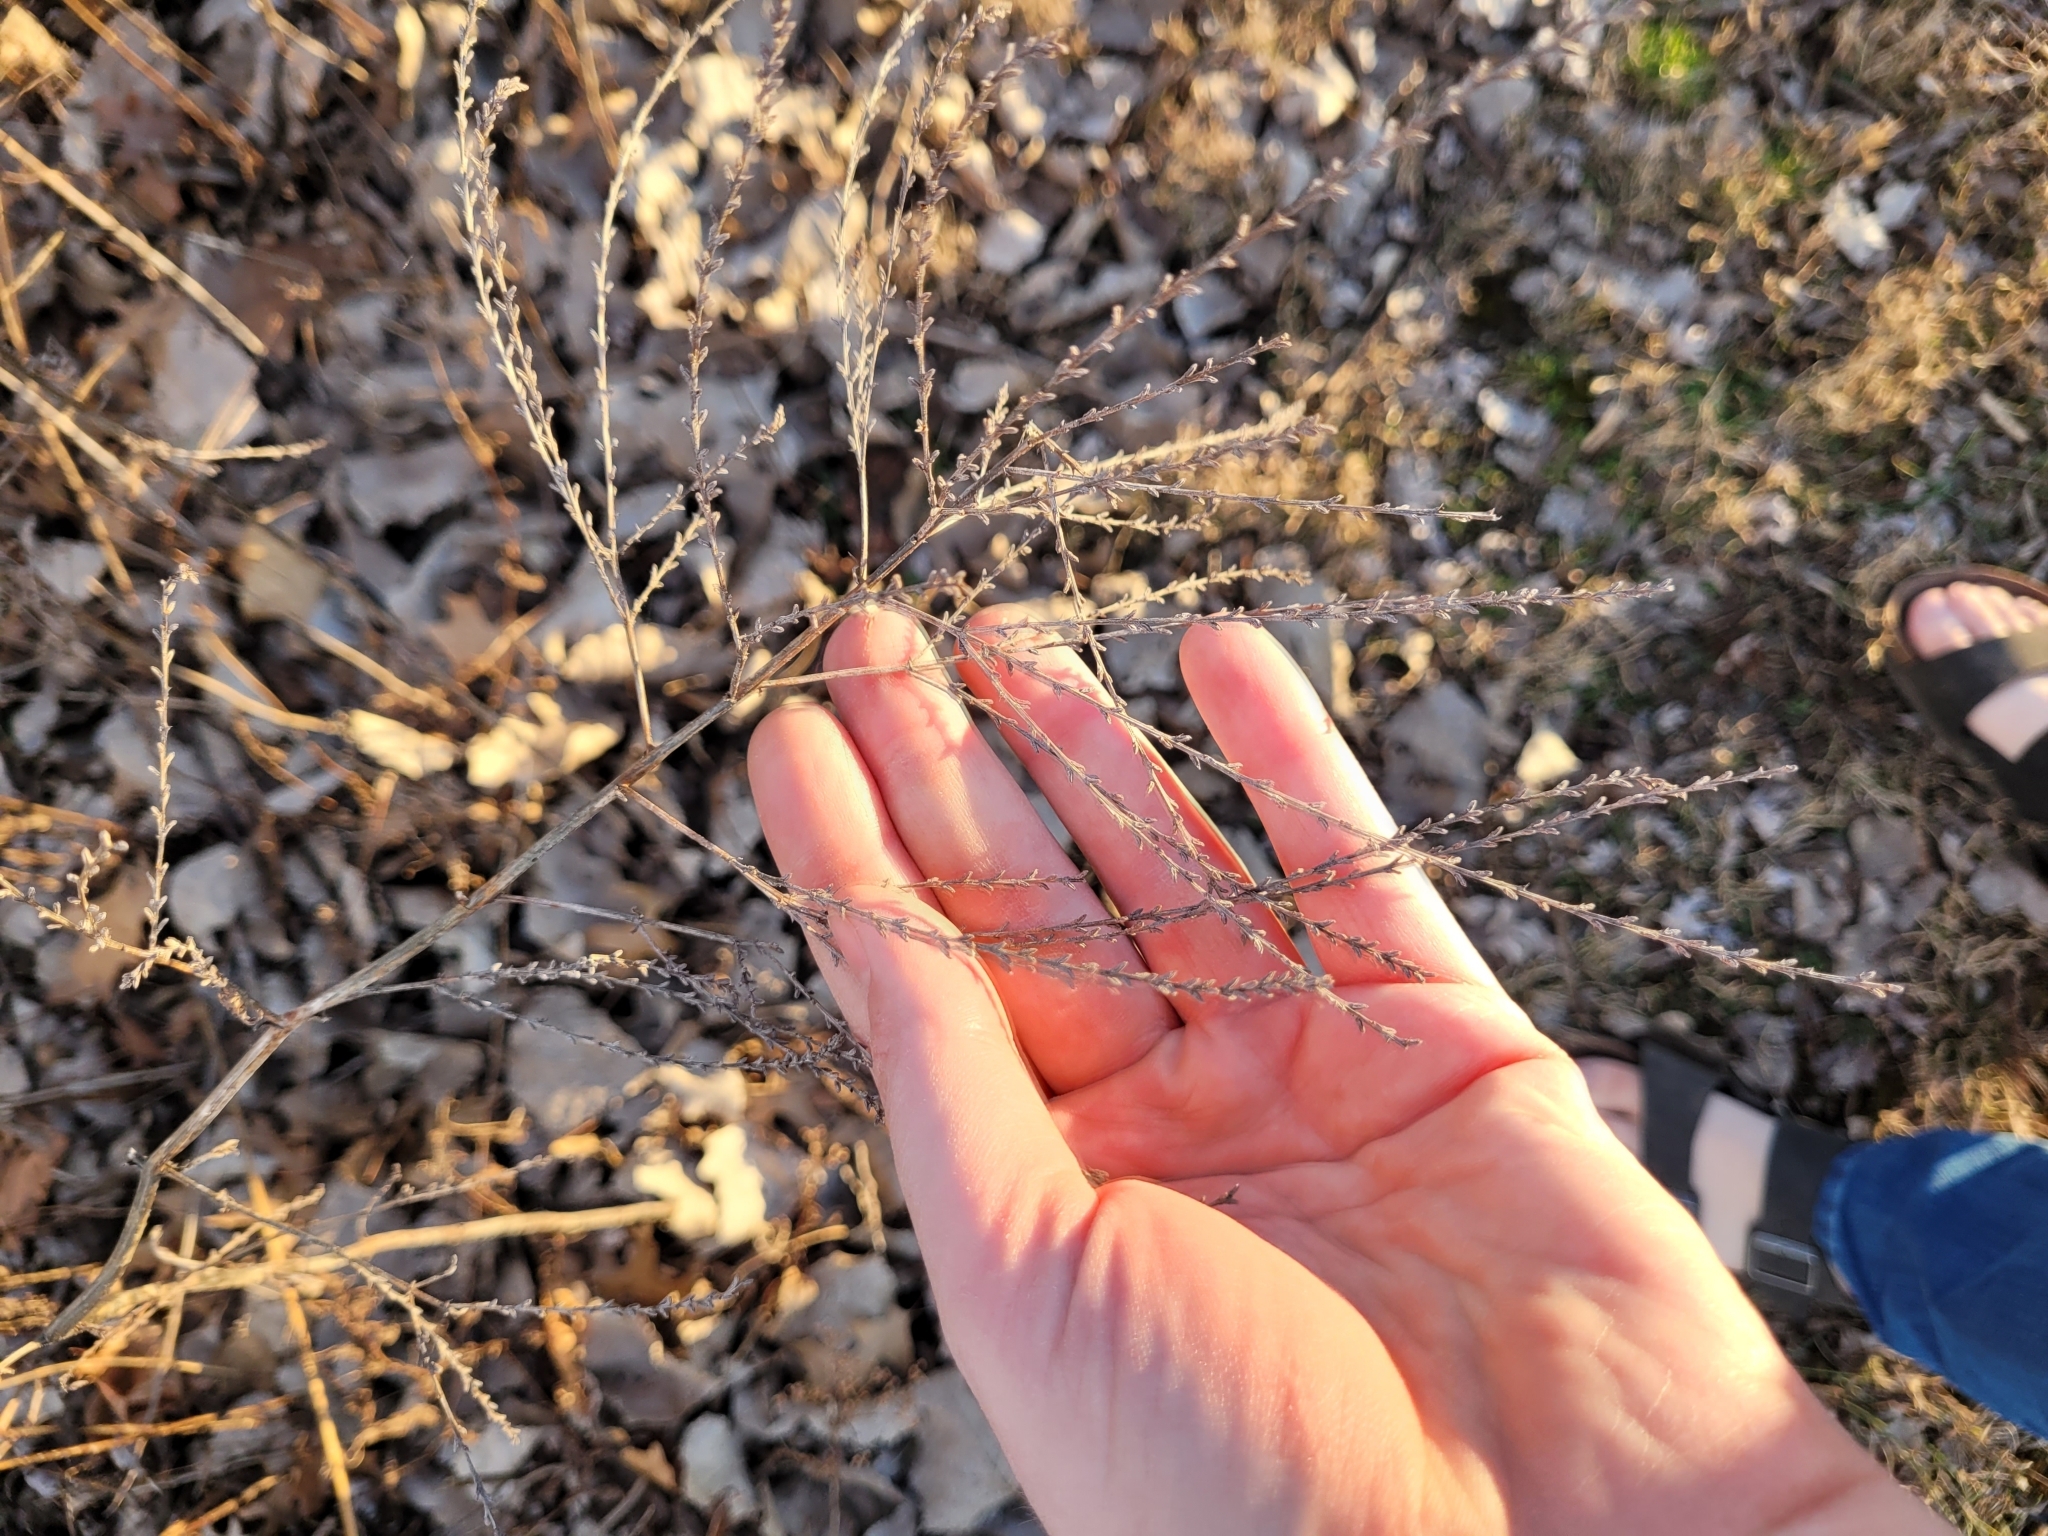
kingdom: Plantae
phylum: Tracheophyta
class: Magnoliopsida
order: Lamiales
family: Verbenaceae
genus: Verbena
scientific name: Verbena urticifolia
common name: Nettle-leaved vervain
